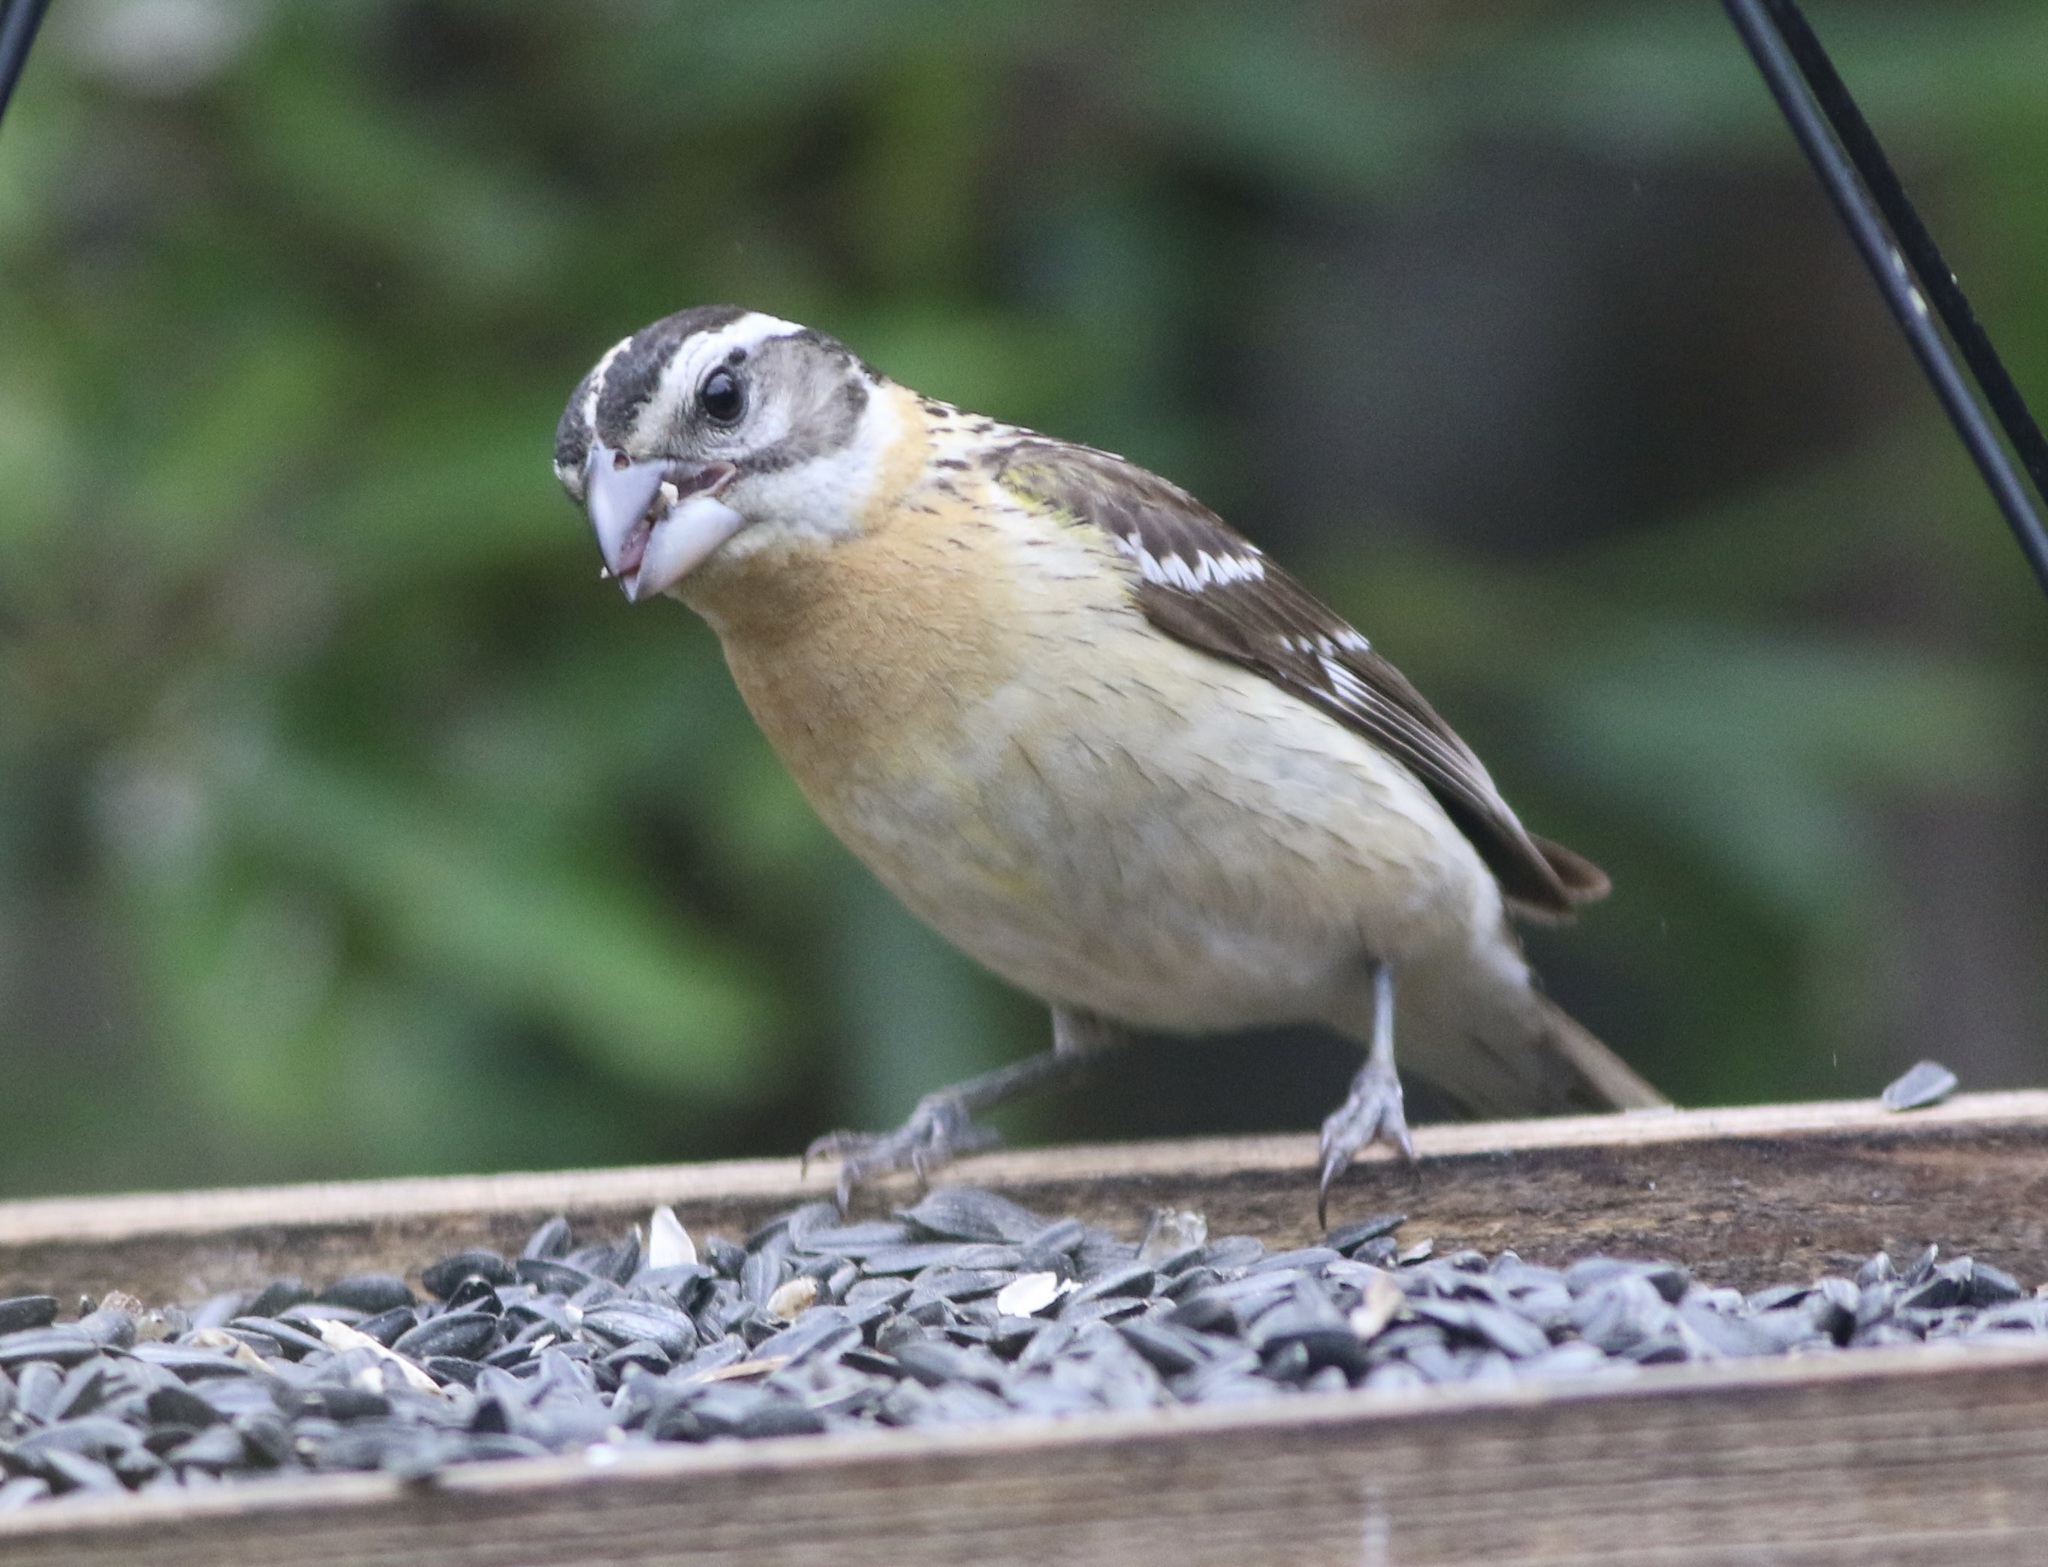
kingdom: Animalia
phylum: Chordata
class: Aves
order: Passeriformes
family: Cardinalidae
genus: Pheucticus
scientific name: Pheucticus melanocephalus
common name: Black-headed grosbeak
